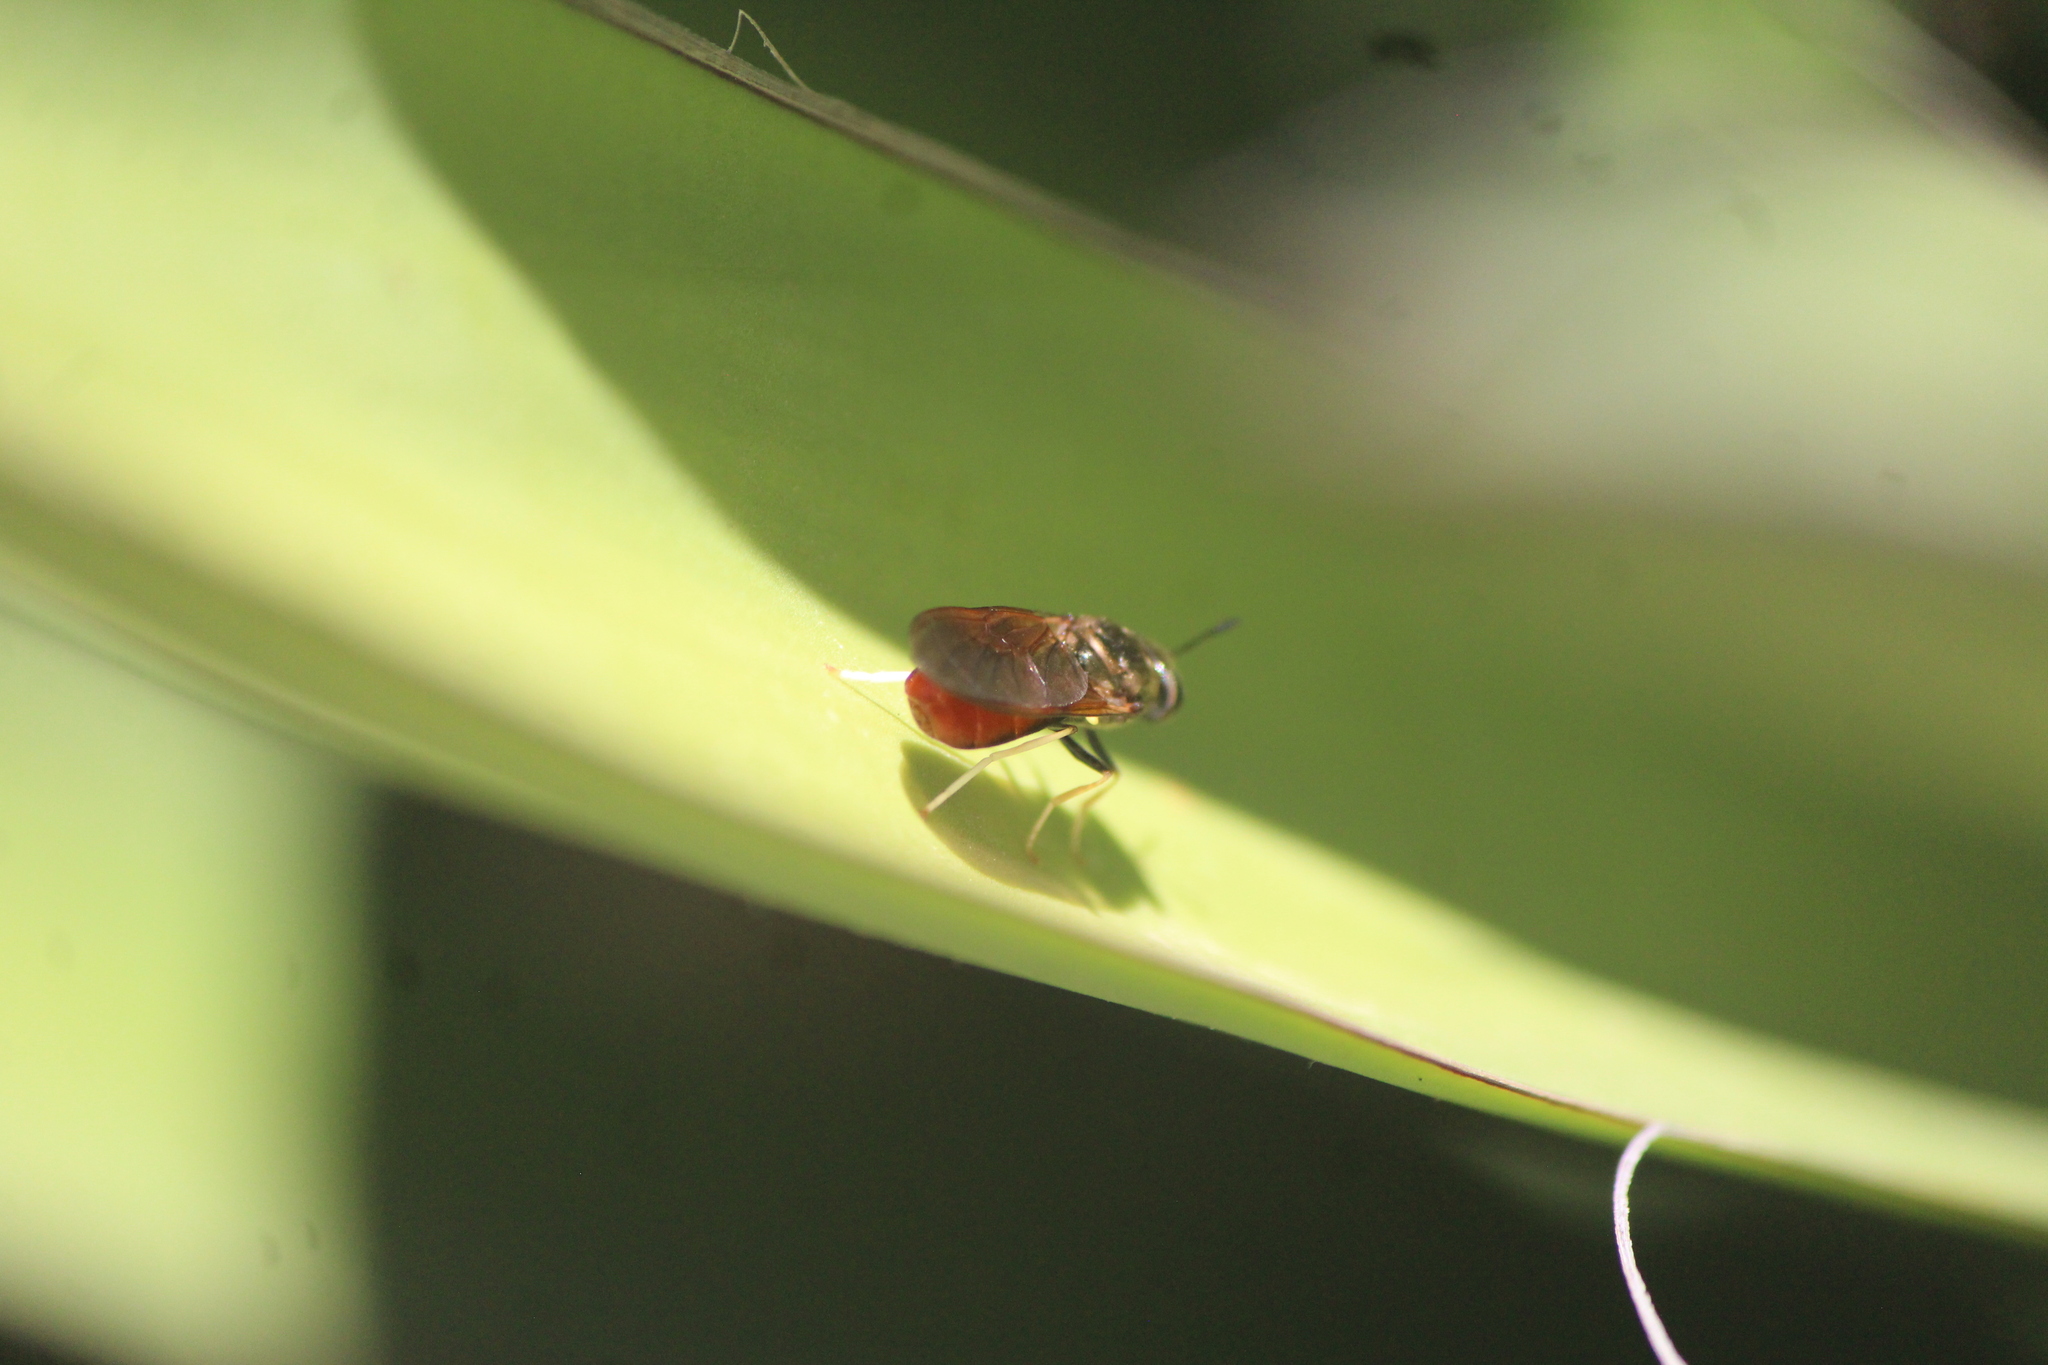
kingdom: Animalia
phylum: Arthropoda
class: Insecta
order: Diptera
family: Stratiomyidae
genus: Hermetia
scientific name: Hermetia relicta
